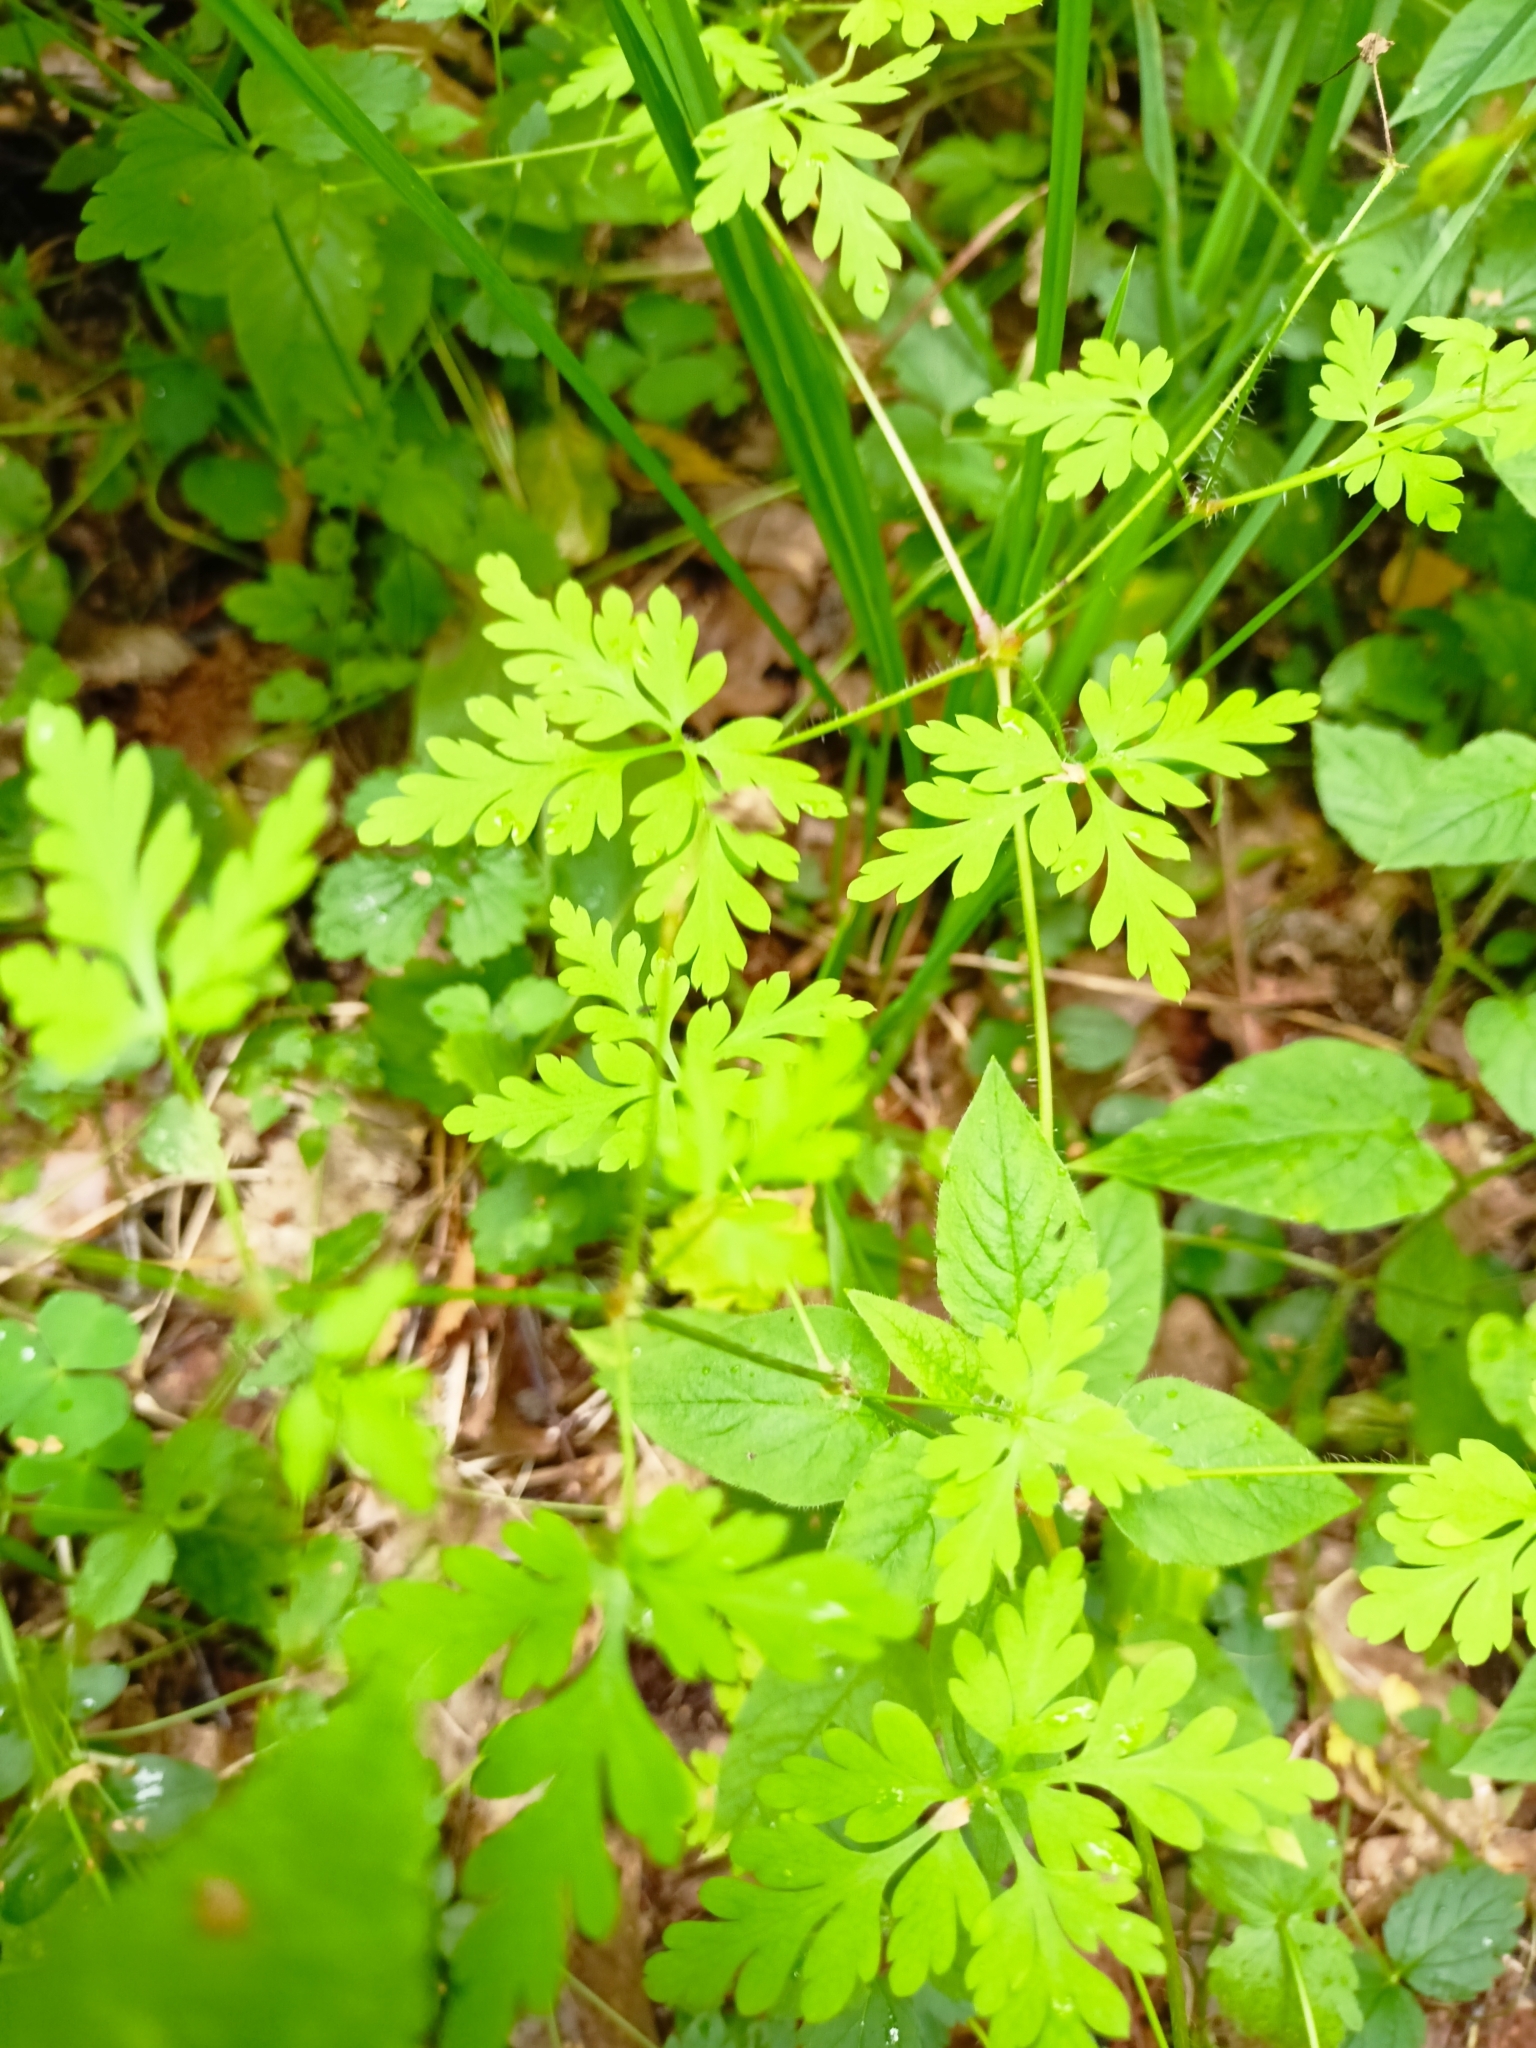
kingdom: Plantae
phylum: Tracheophyta
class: Magnoliopsida
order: Geraniales
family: Geraniaceae
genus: Geranium
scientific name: Geranium robertianum
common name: Herb-robert
